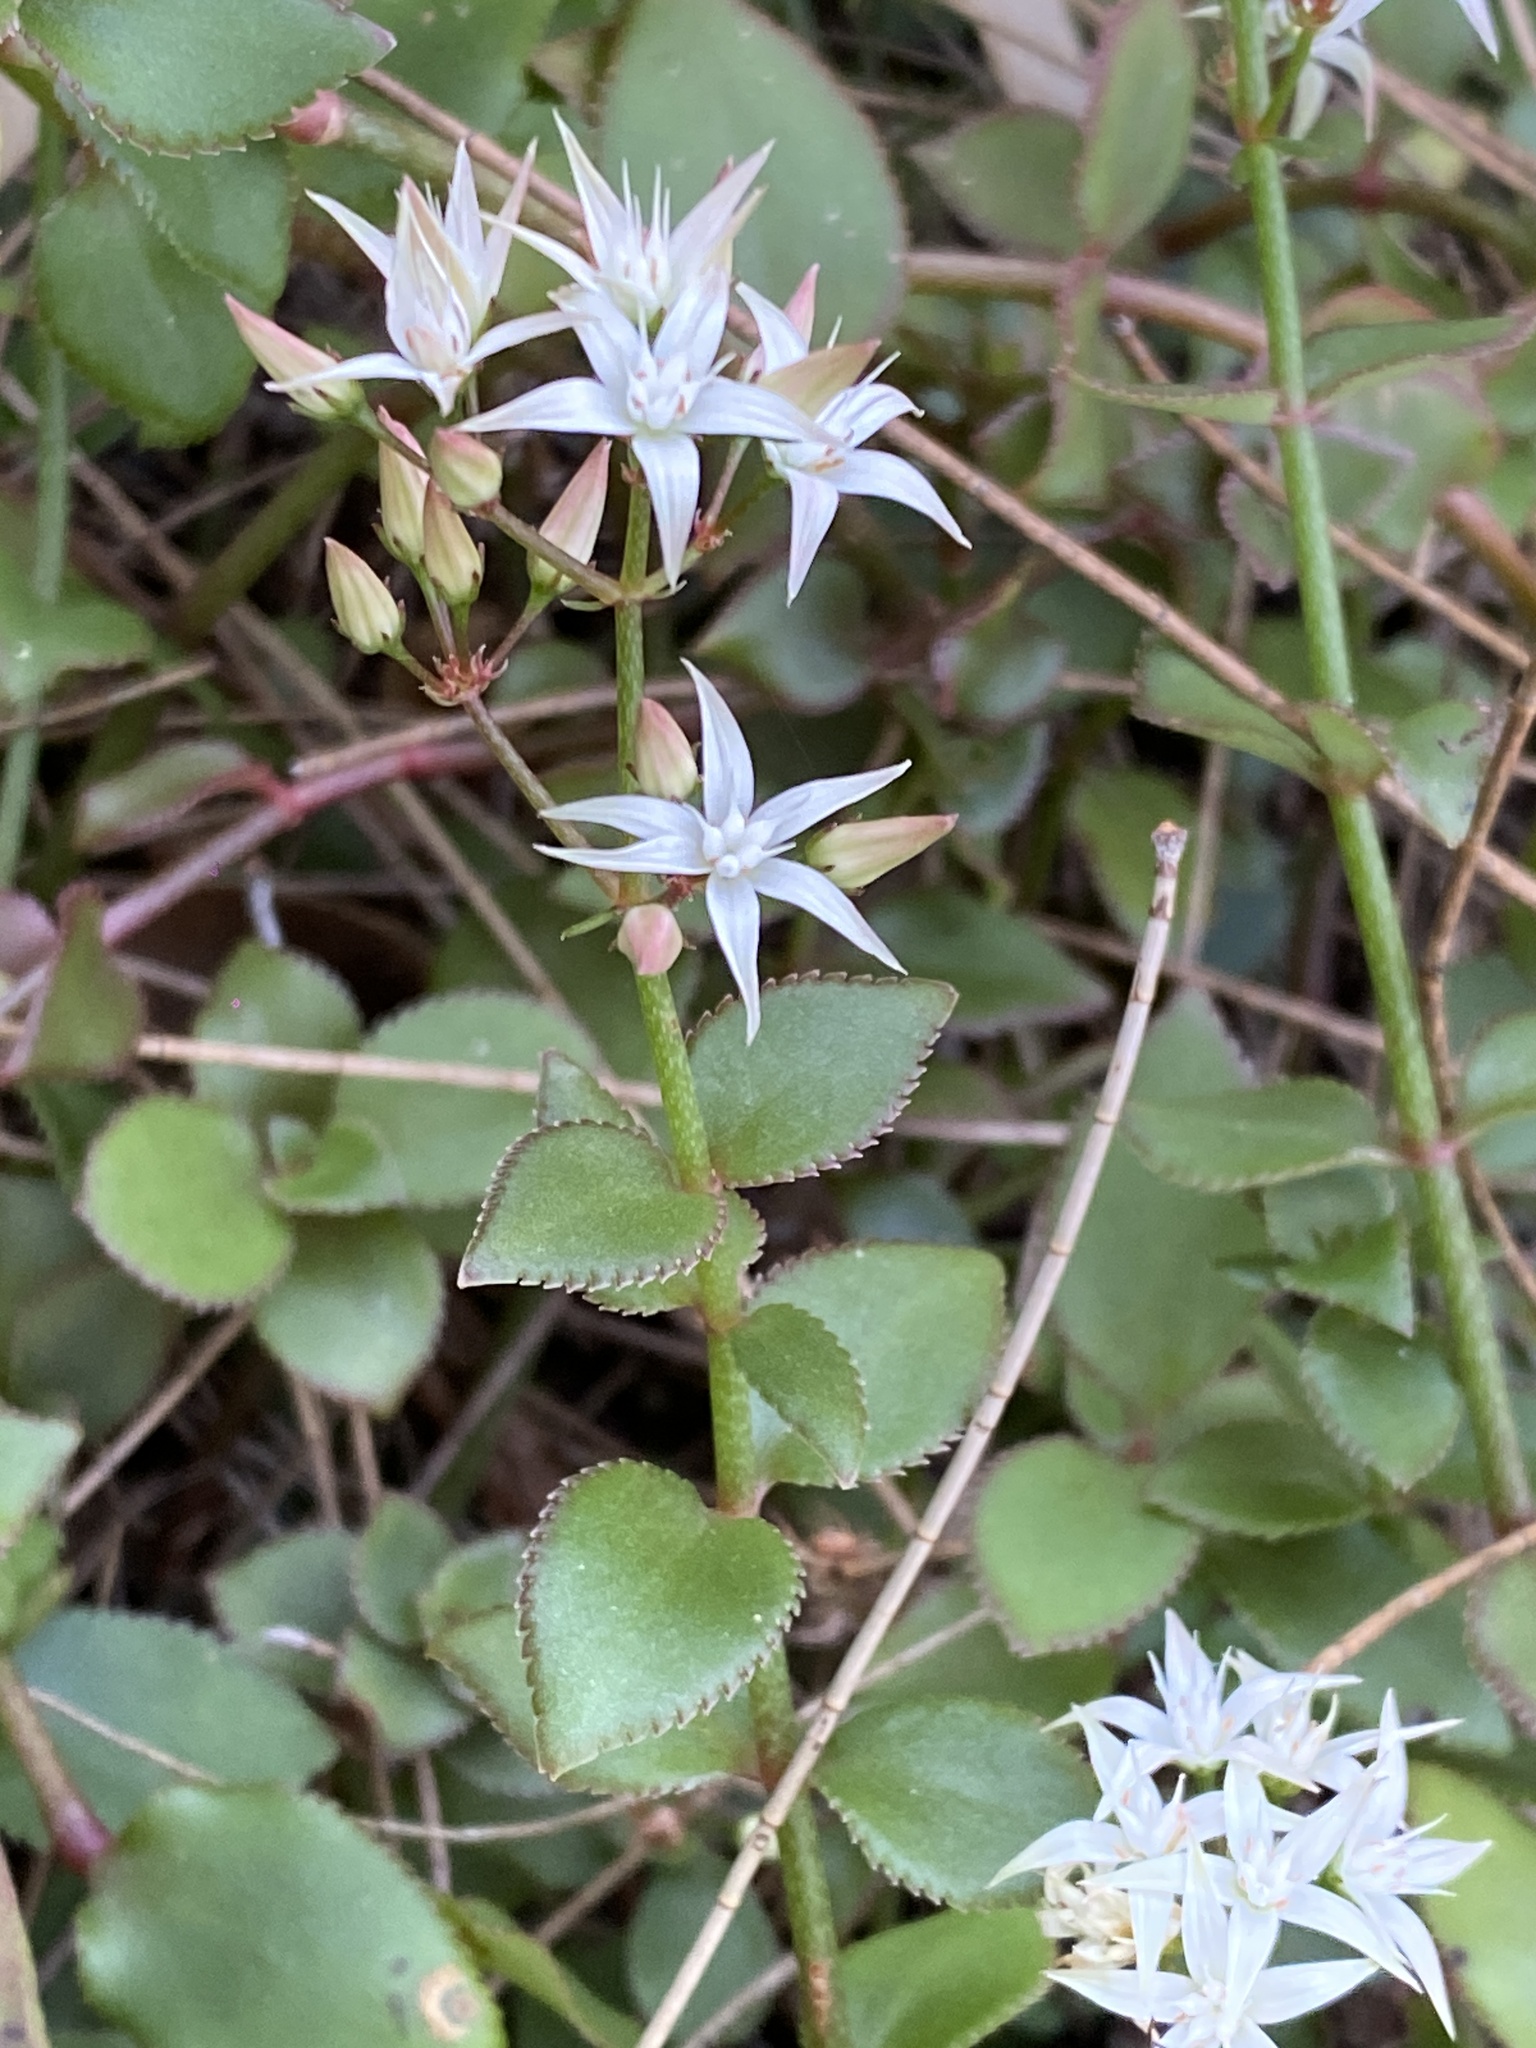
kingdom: Plantae
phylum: Tracheophyta
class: Magnoliopsida
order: Saxifragales
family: Crassulaceae
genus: Crassula
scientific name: Crassula sarmentosa
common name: Jade-tree
